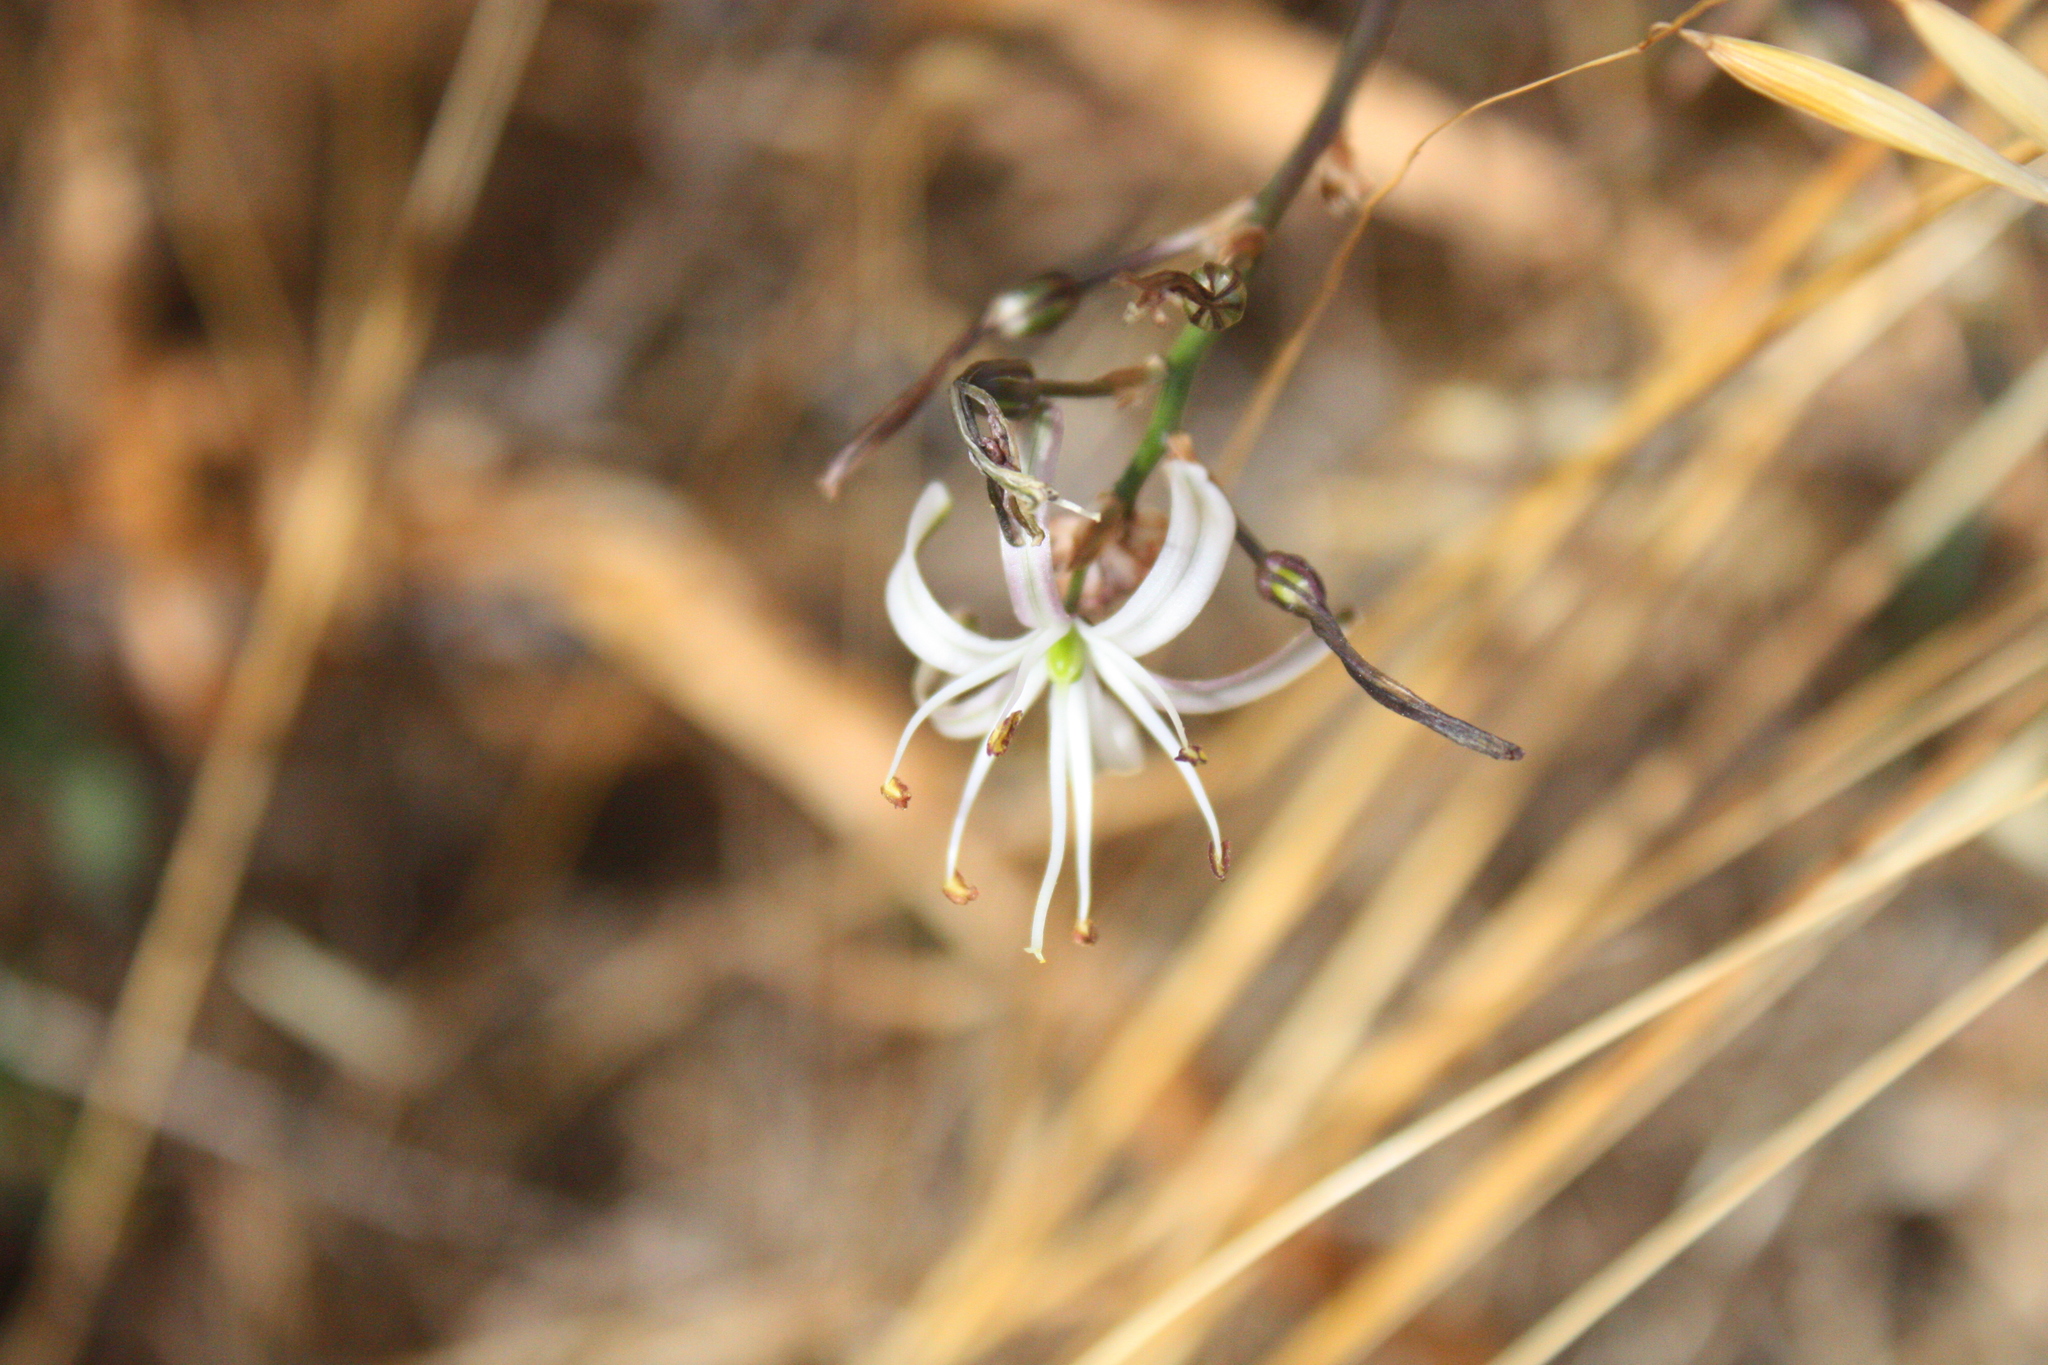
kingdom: Plantae
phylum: Tracheophyta
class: Liliopsida
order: Asparagales
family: Asparagaceae
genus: Chlorogalum
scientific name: Chlorogalum pomeridianum
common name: Amole
